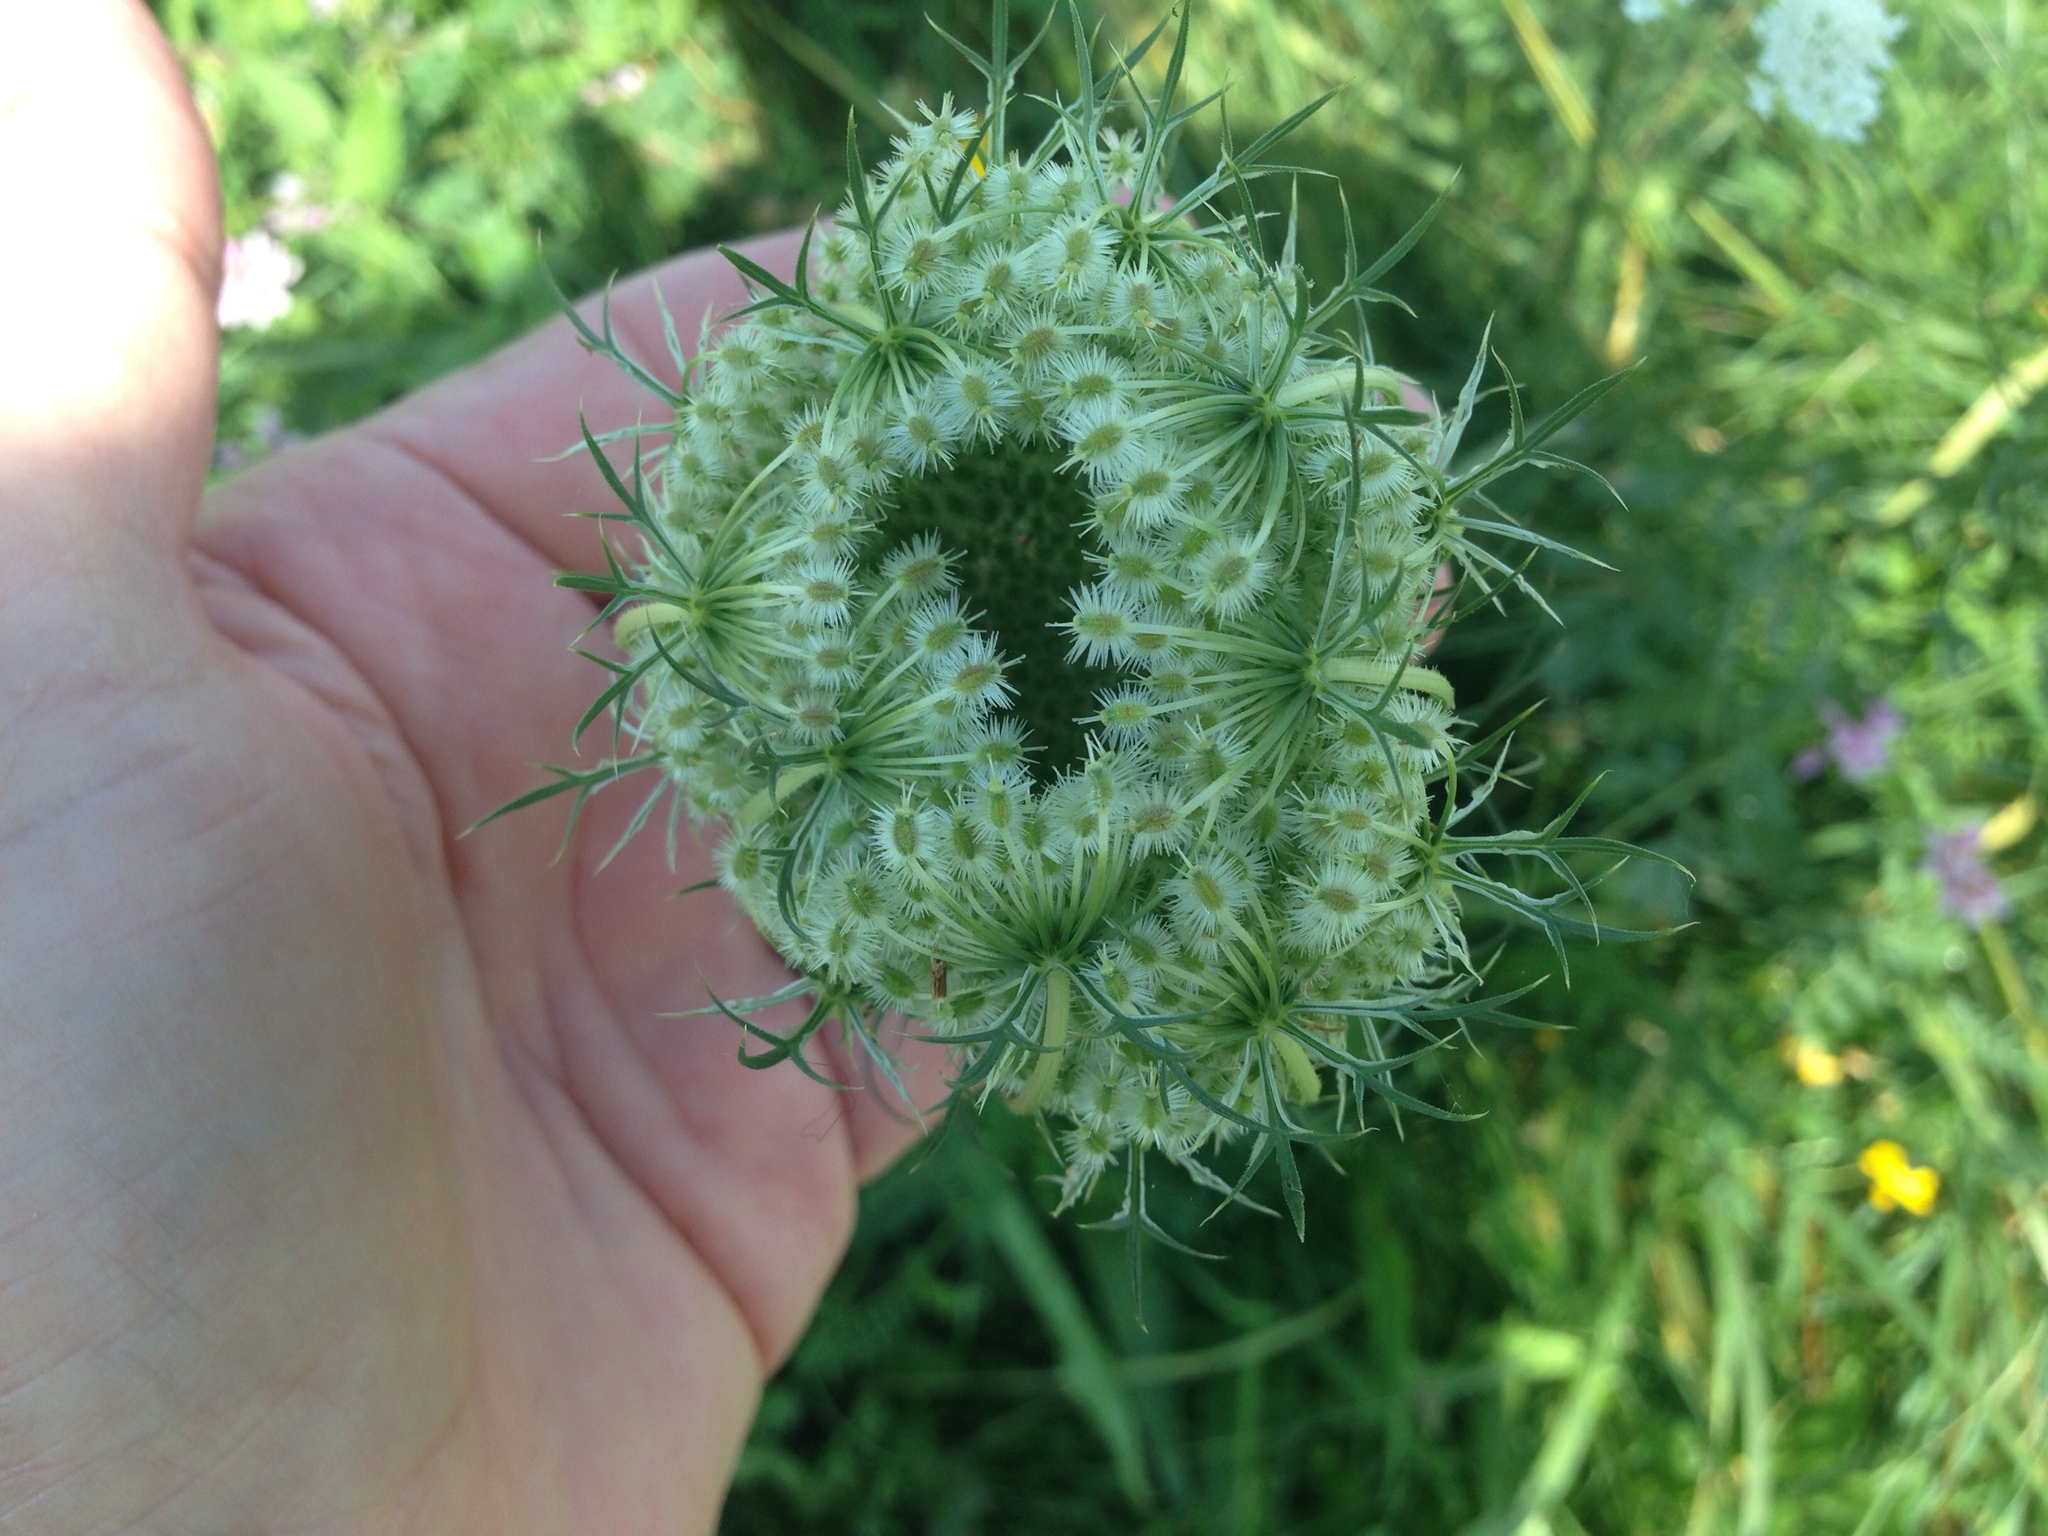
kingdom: Plantae
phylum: Tracheophyta
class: Magnoliopsida
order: Apiales
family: Apiaceae
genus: Daucus
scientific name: Daucus carota
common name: Wild carrot
